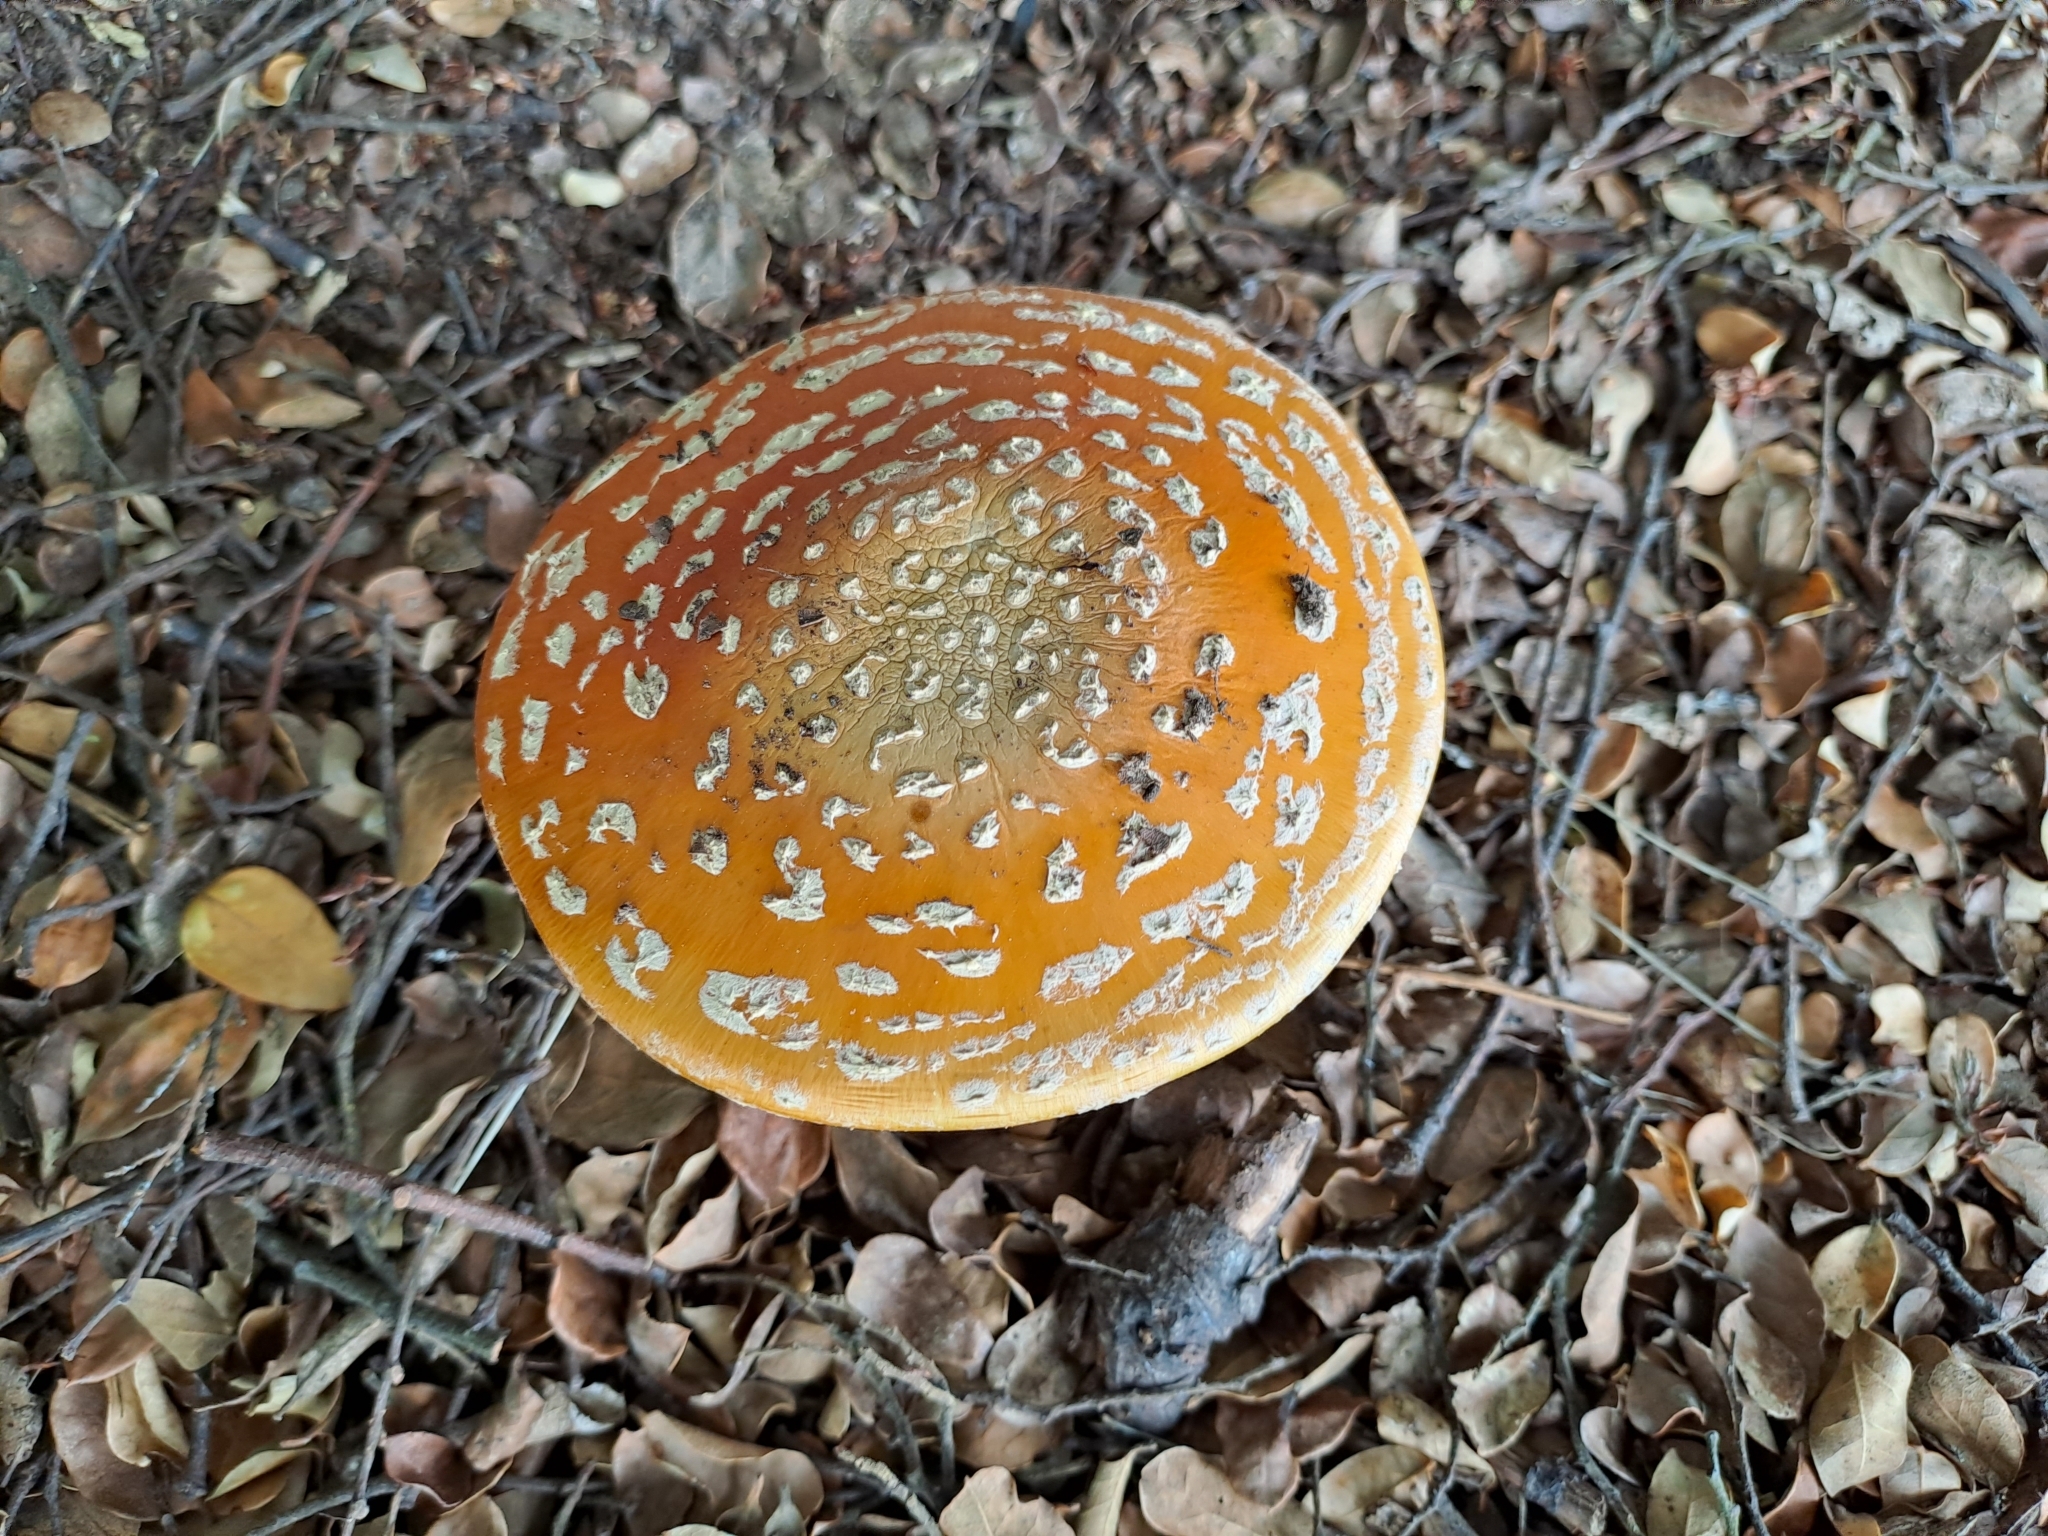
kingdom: Fungi
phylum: Basidiomycota
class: Agaricomycetes
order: Agaricales
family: Amanitaceae
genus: Amanita
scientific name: Amanita muscaria
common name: Fly agaric
